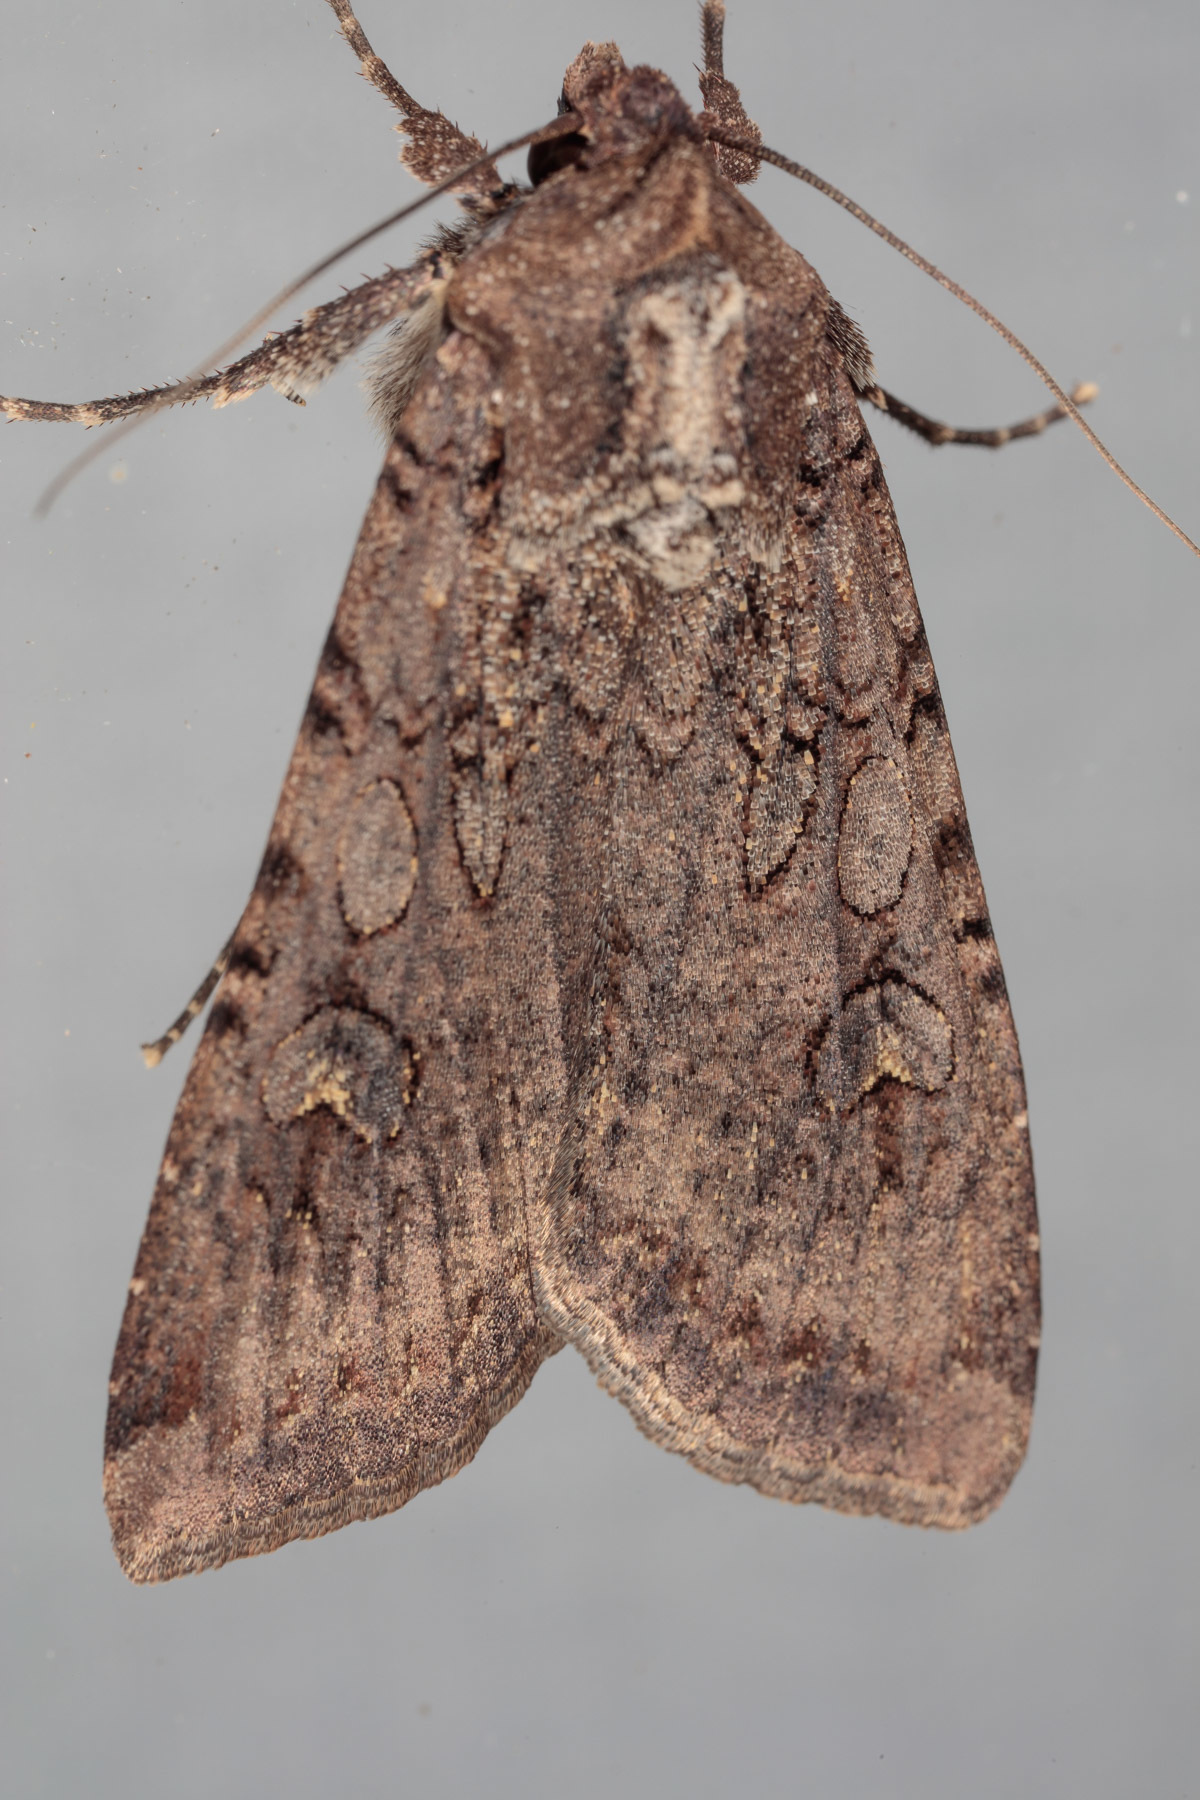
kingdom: Animalia
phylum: Arthropoda
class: Insecta
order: Lepidoptera
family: Noctuidae
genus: Peridroma
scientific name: Peridroma saucia
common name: Pearly underwing
